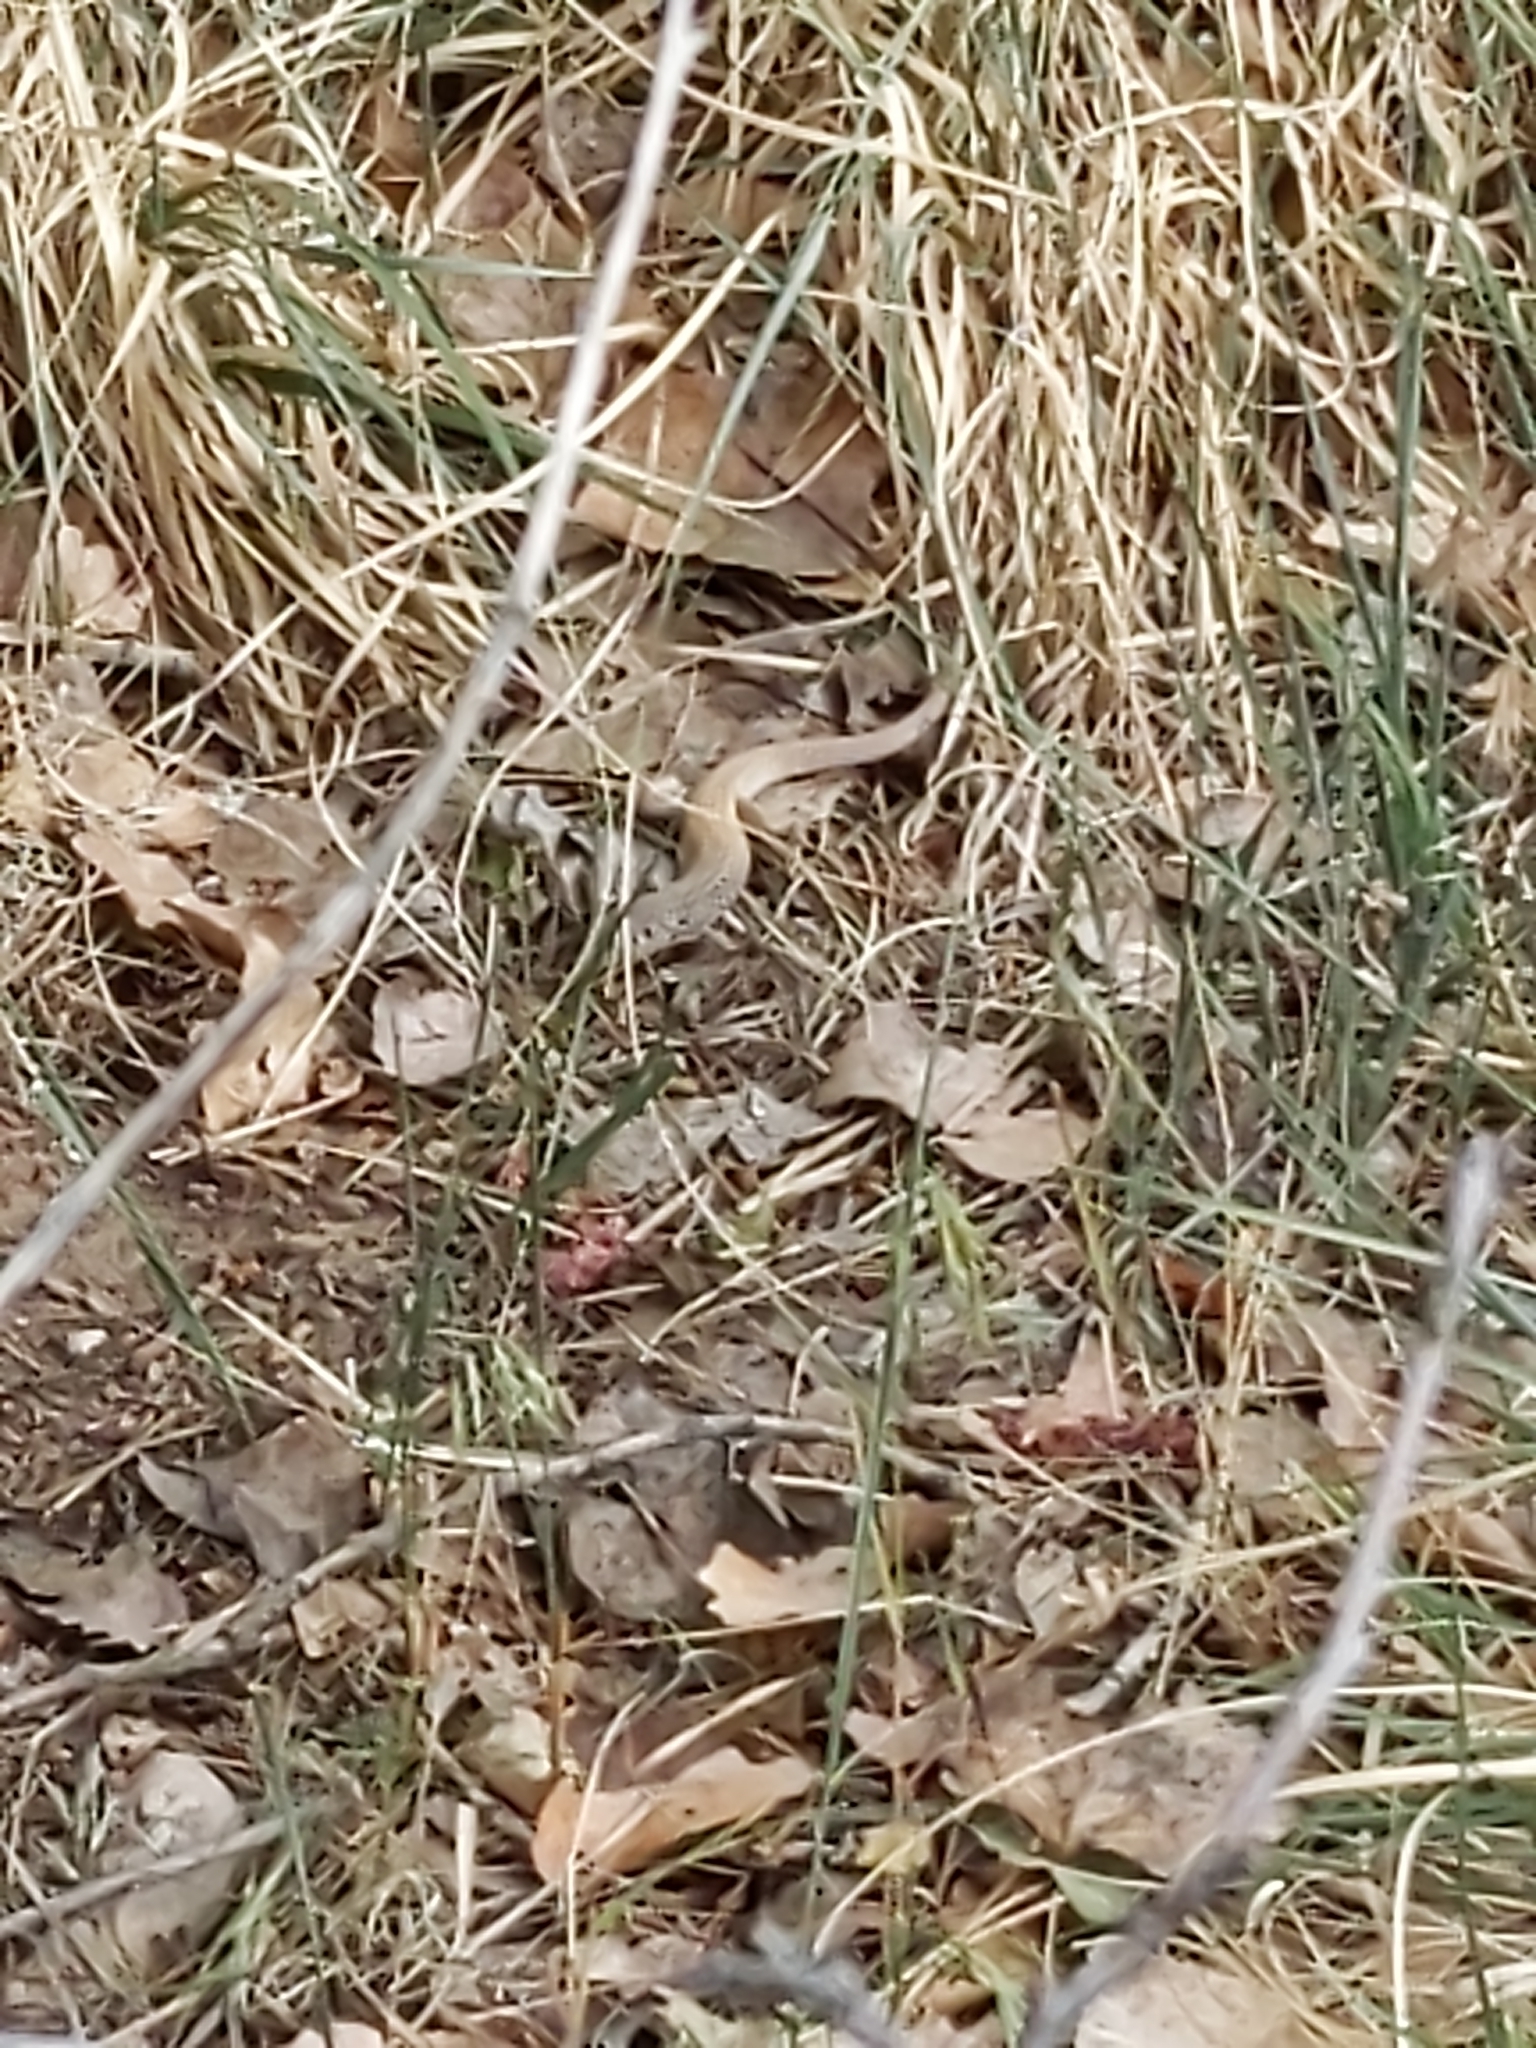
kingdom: Animalia
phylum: Chordata
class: Squamata
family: Teiidae
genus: Aspidoscelis
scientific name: Aspidoscelis tigris
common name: Tiger whiptail
